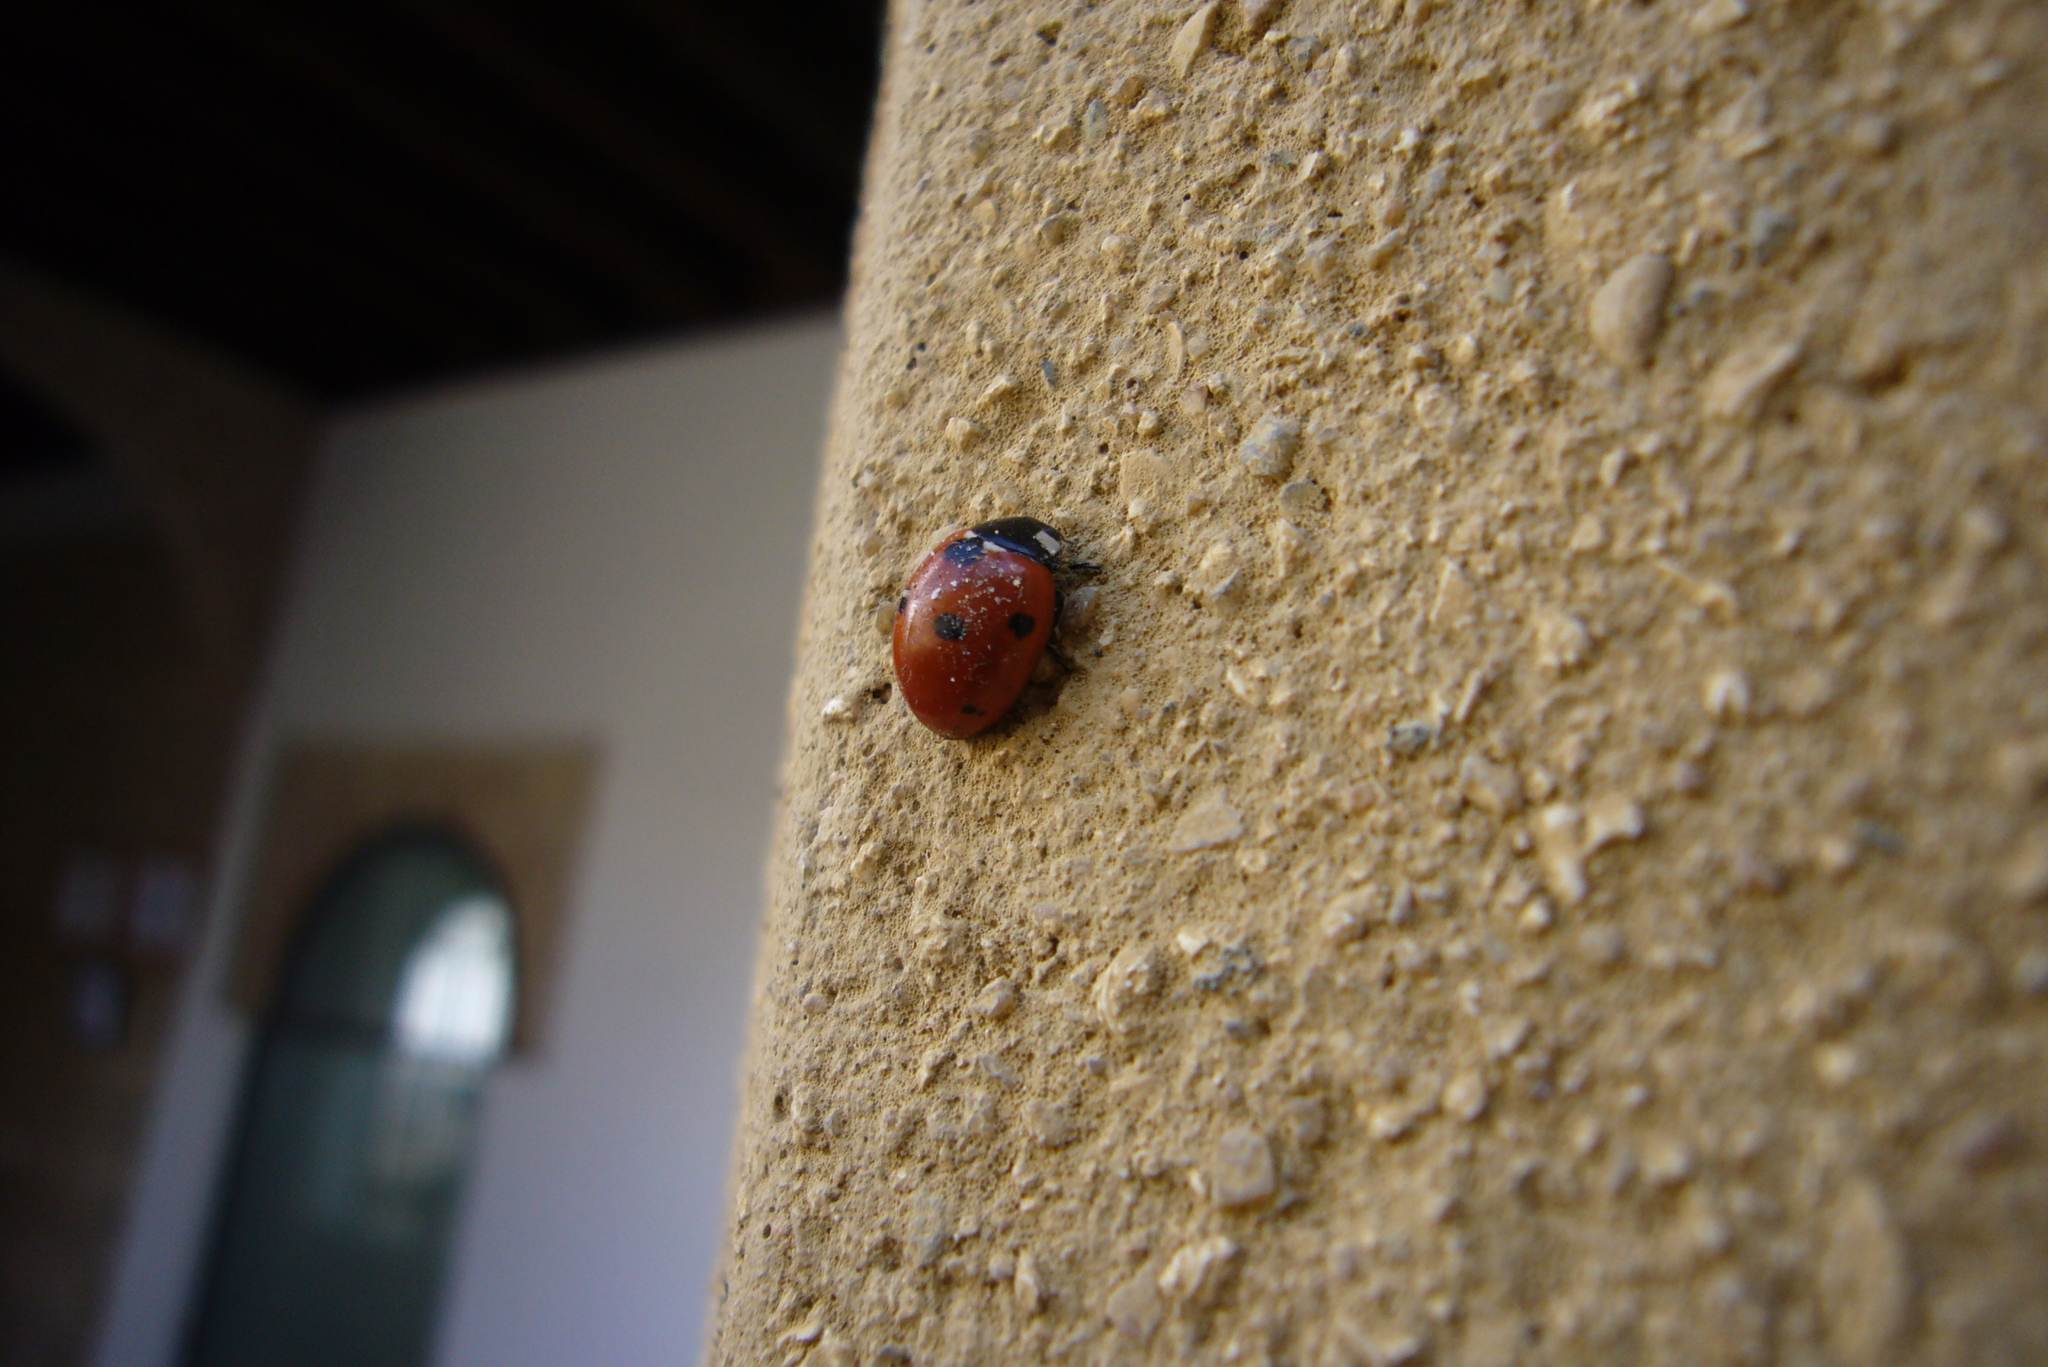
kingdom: Animalia
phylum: Arthropoda
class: Insecta
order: Coleoptera
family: Coccinellidae
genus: Coccinella
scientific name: Coccinella septempunctata
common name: Sevenspotted lady beetle
